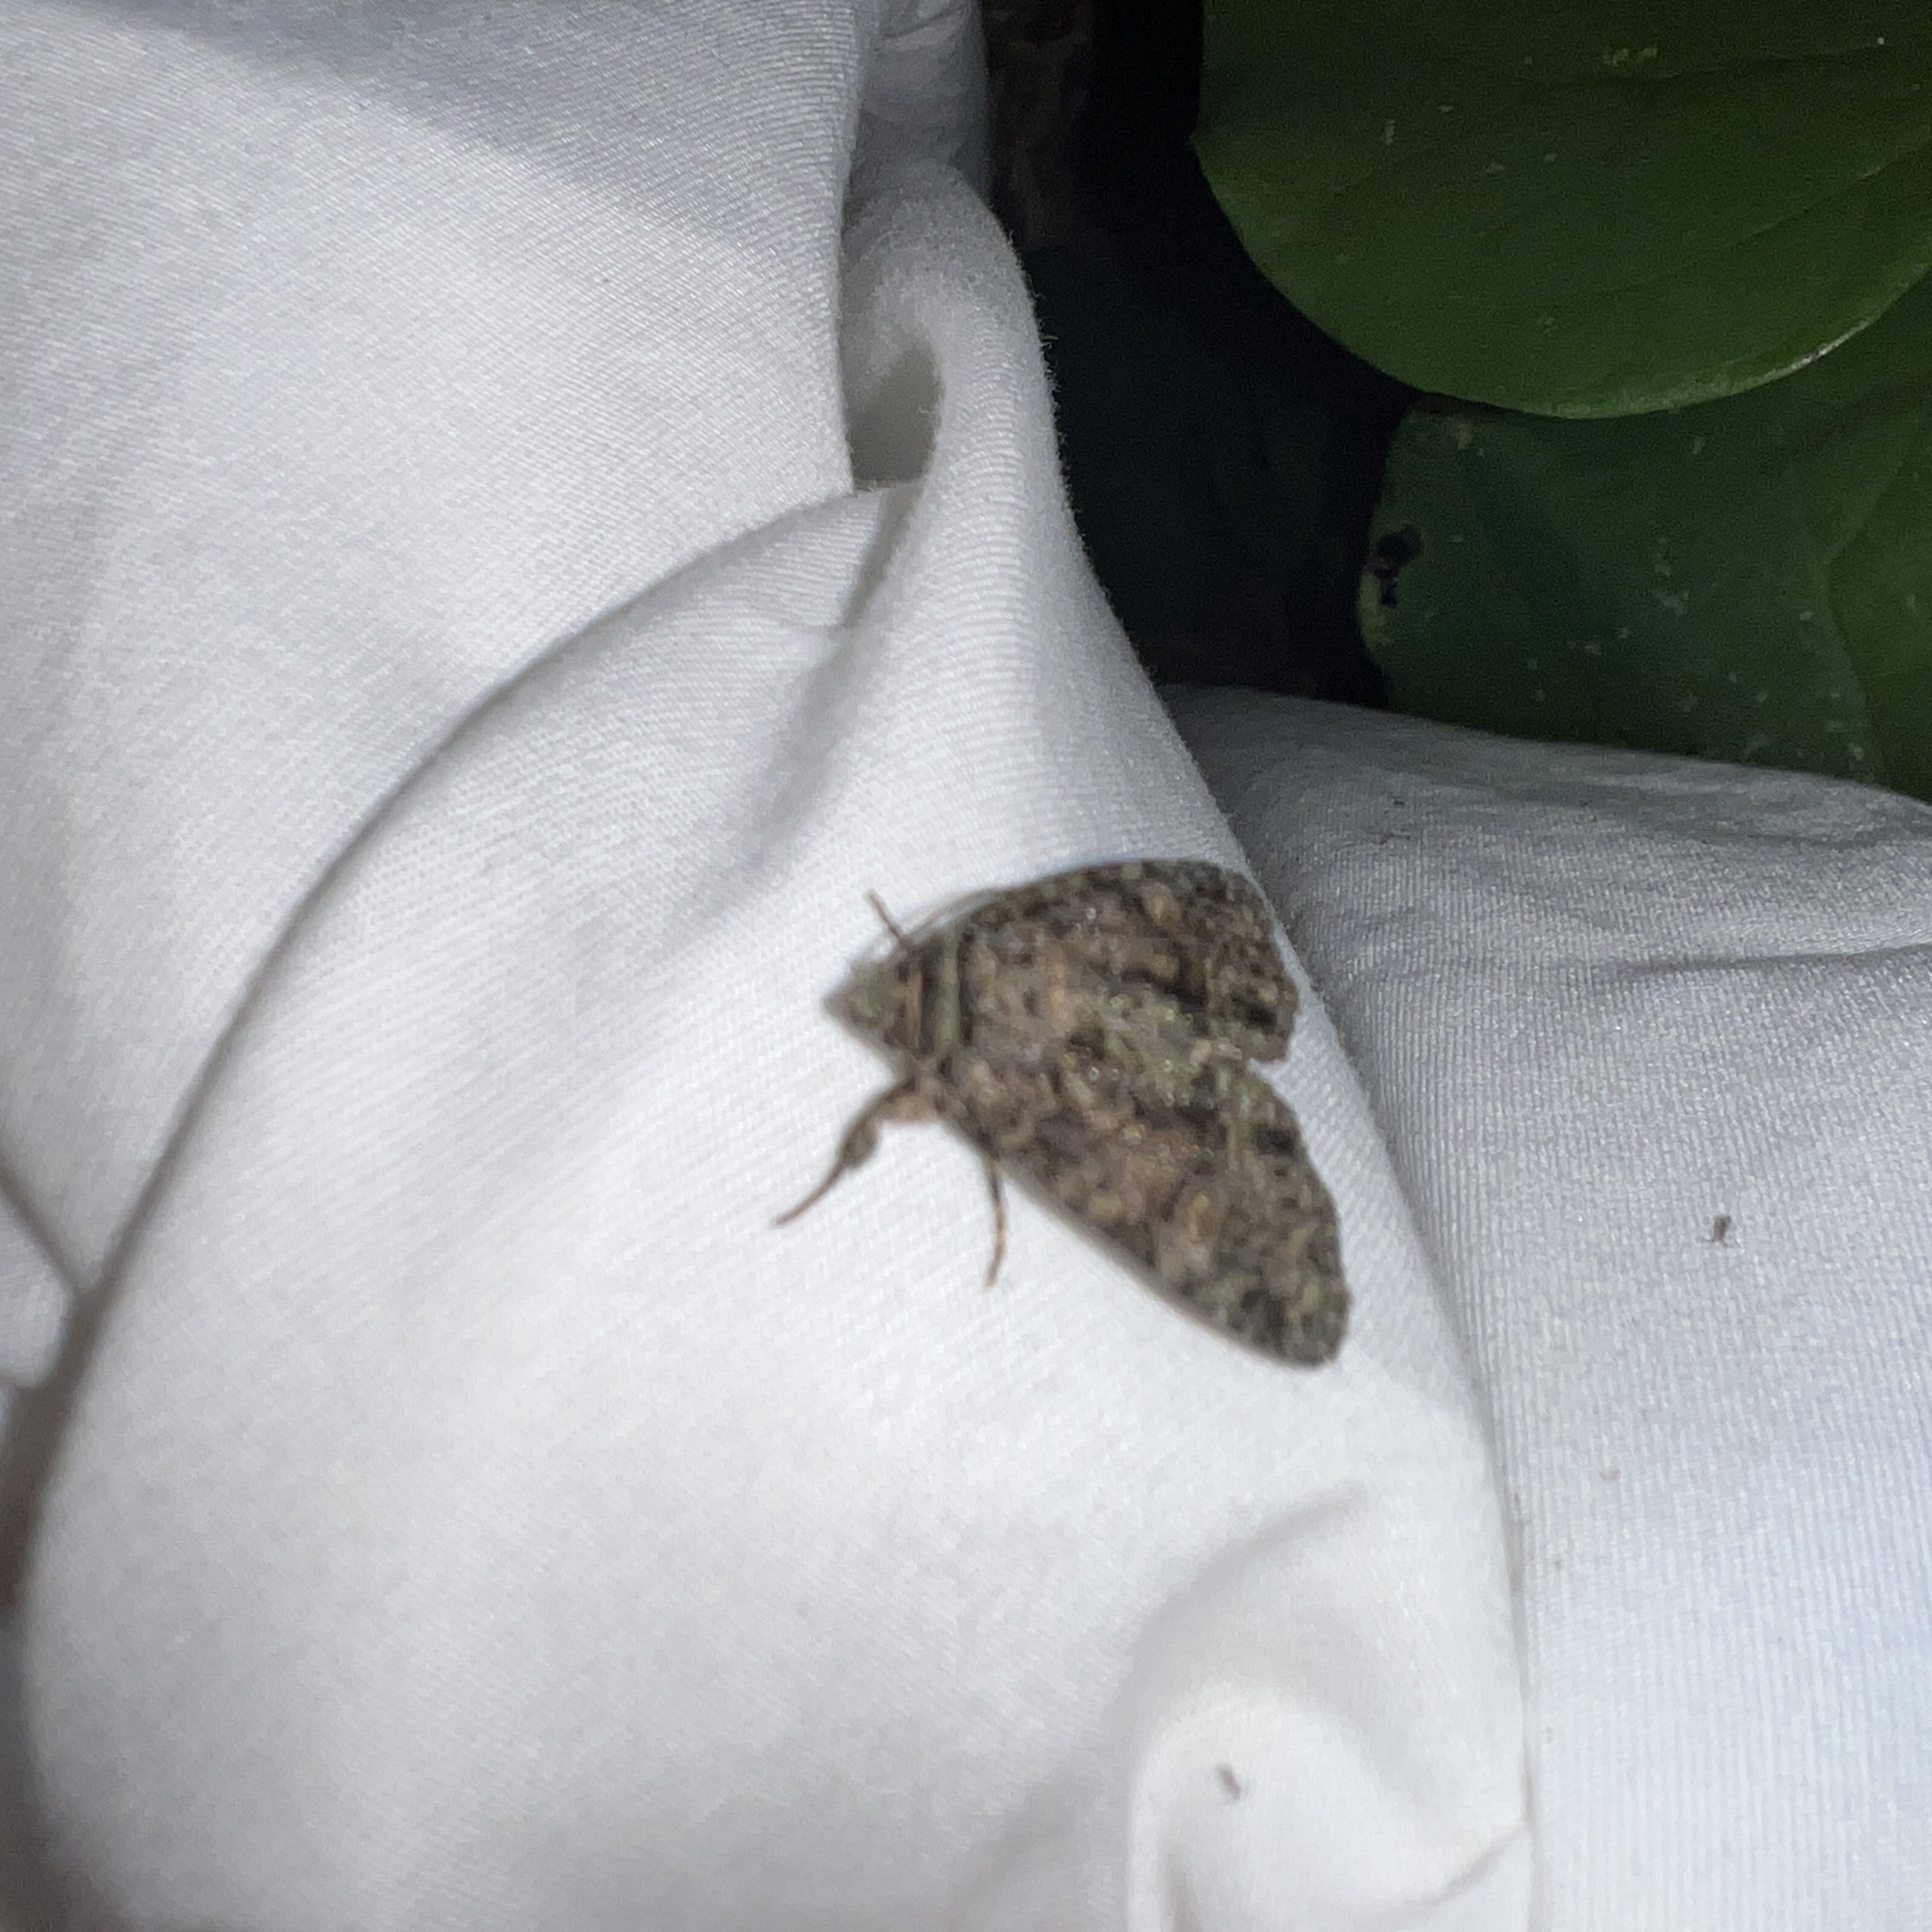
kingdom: Animalia
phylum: Arthropoda
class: Insecta
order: Lepidoptera
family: Noctuidae
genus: Phosphila
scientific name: Phosphila turbulenta
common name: Turbulent phosphila moth
